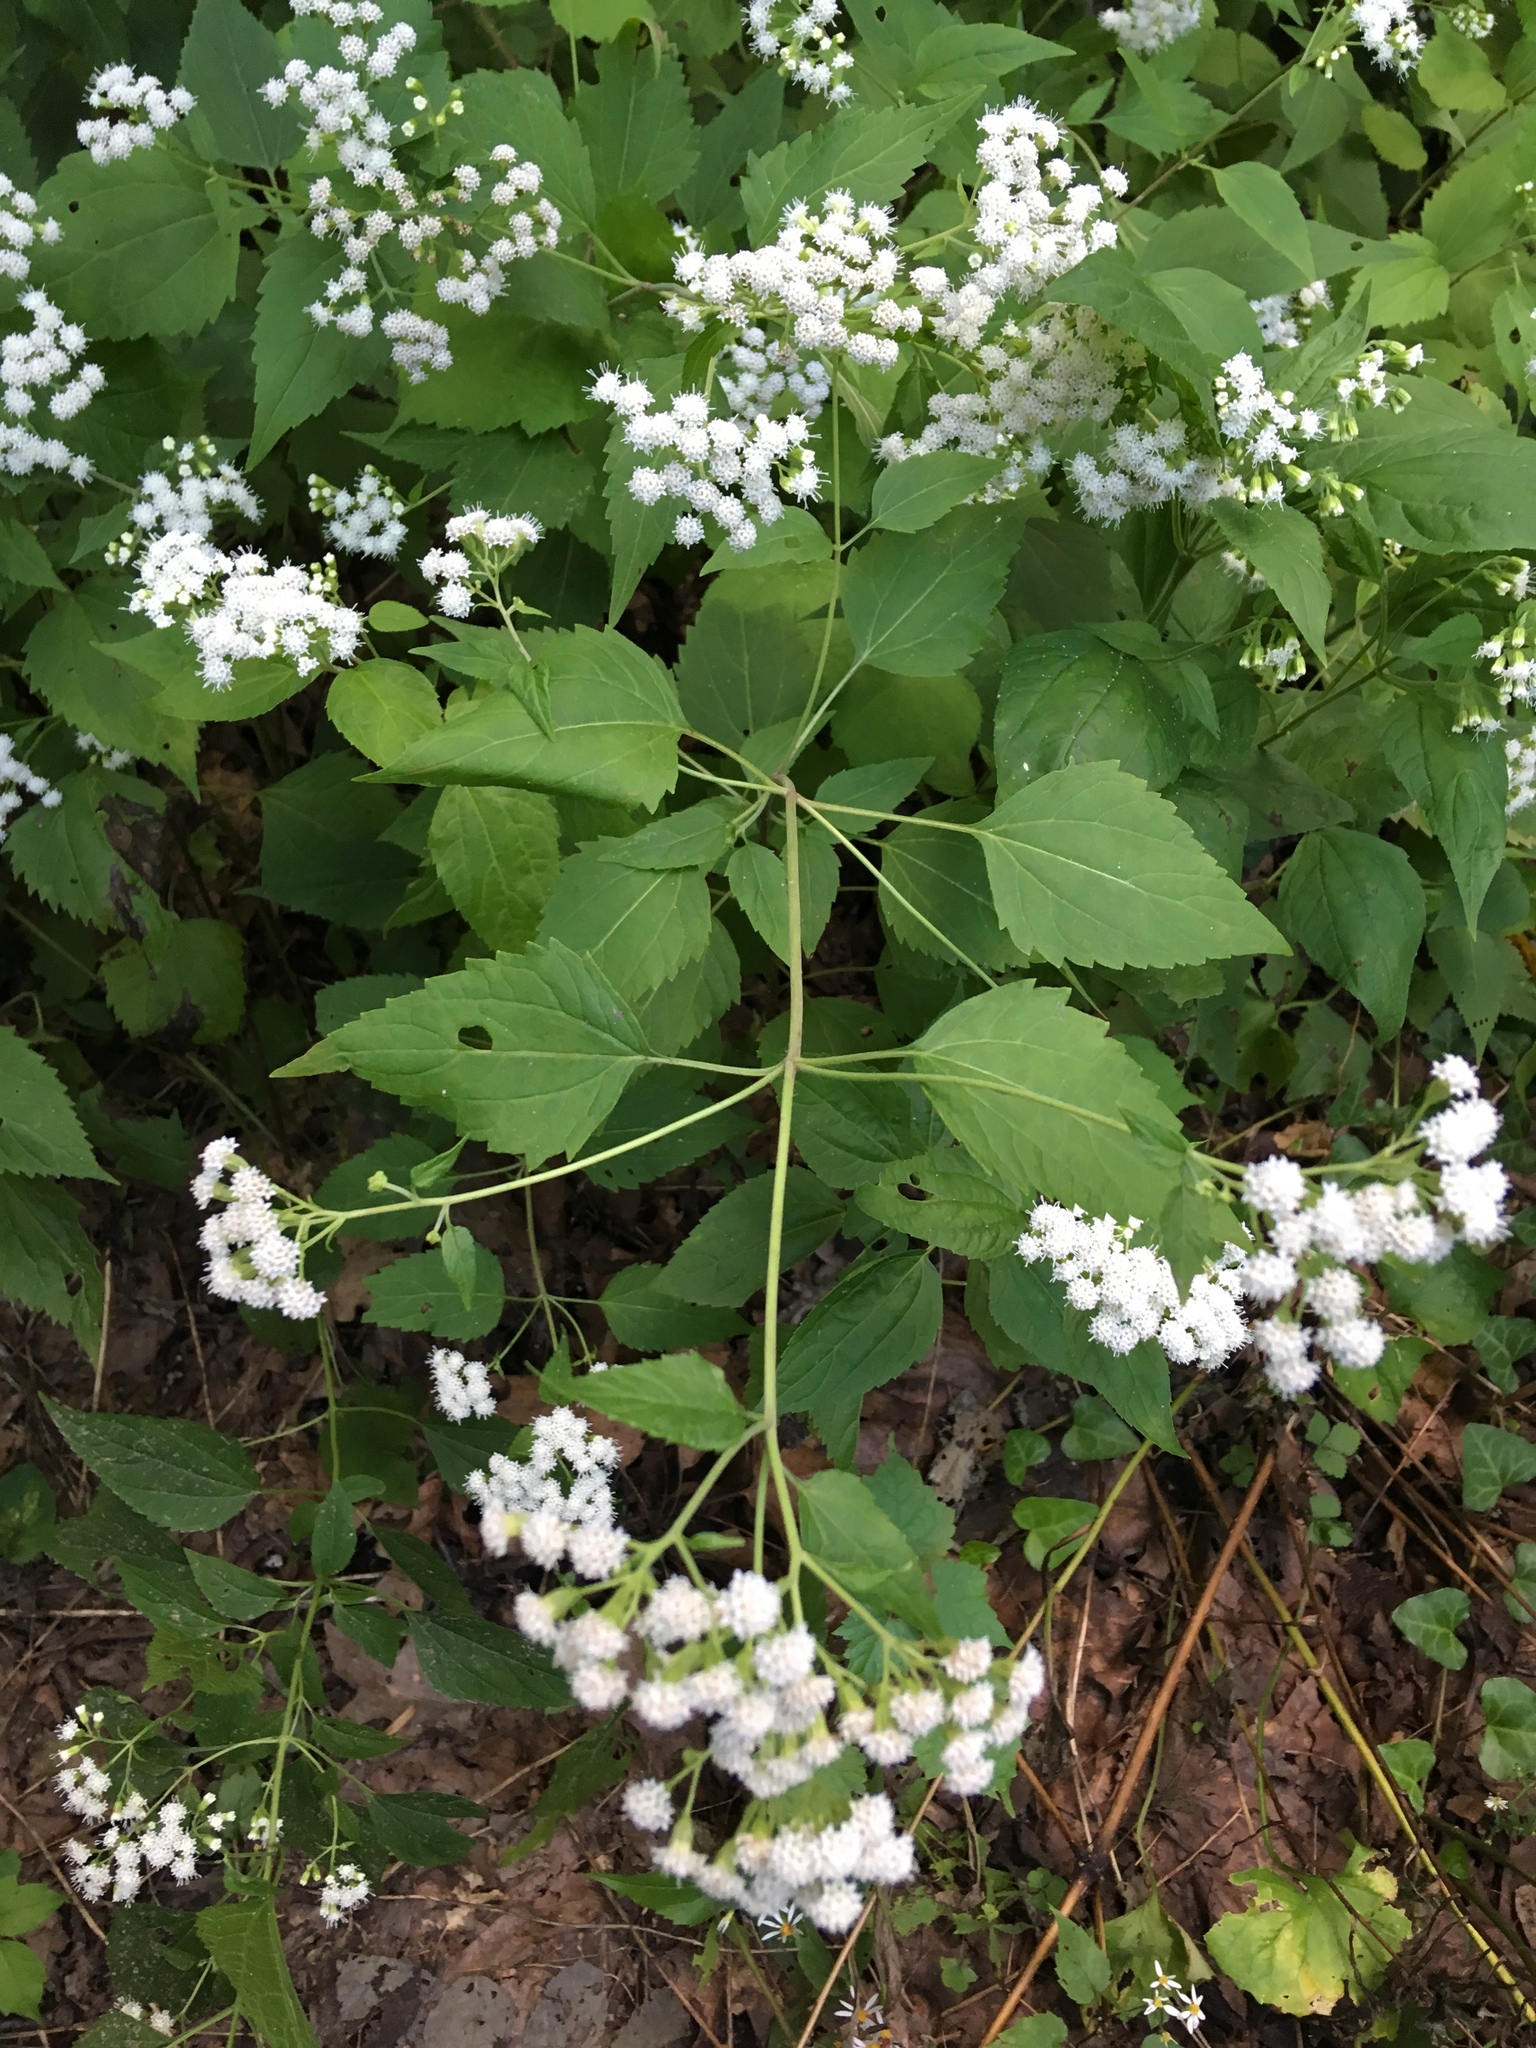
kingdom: Plantae
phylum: Tracheophyta
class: Magnoliopsida
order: Asterales
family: Asteraceae
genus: Ageratina
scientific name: Ageratina altissima
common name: White snakeroot
